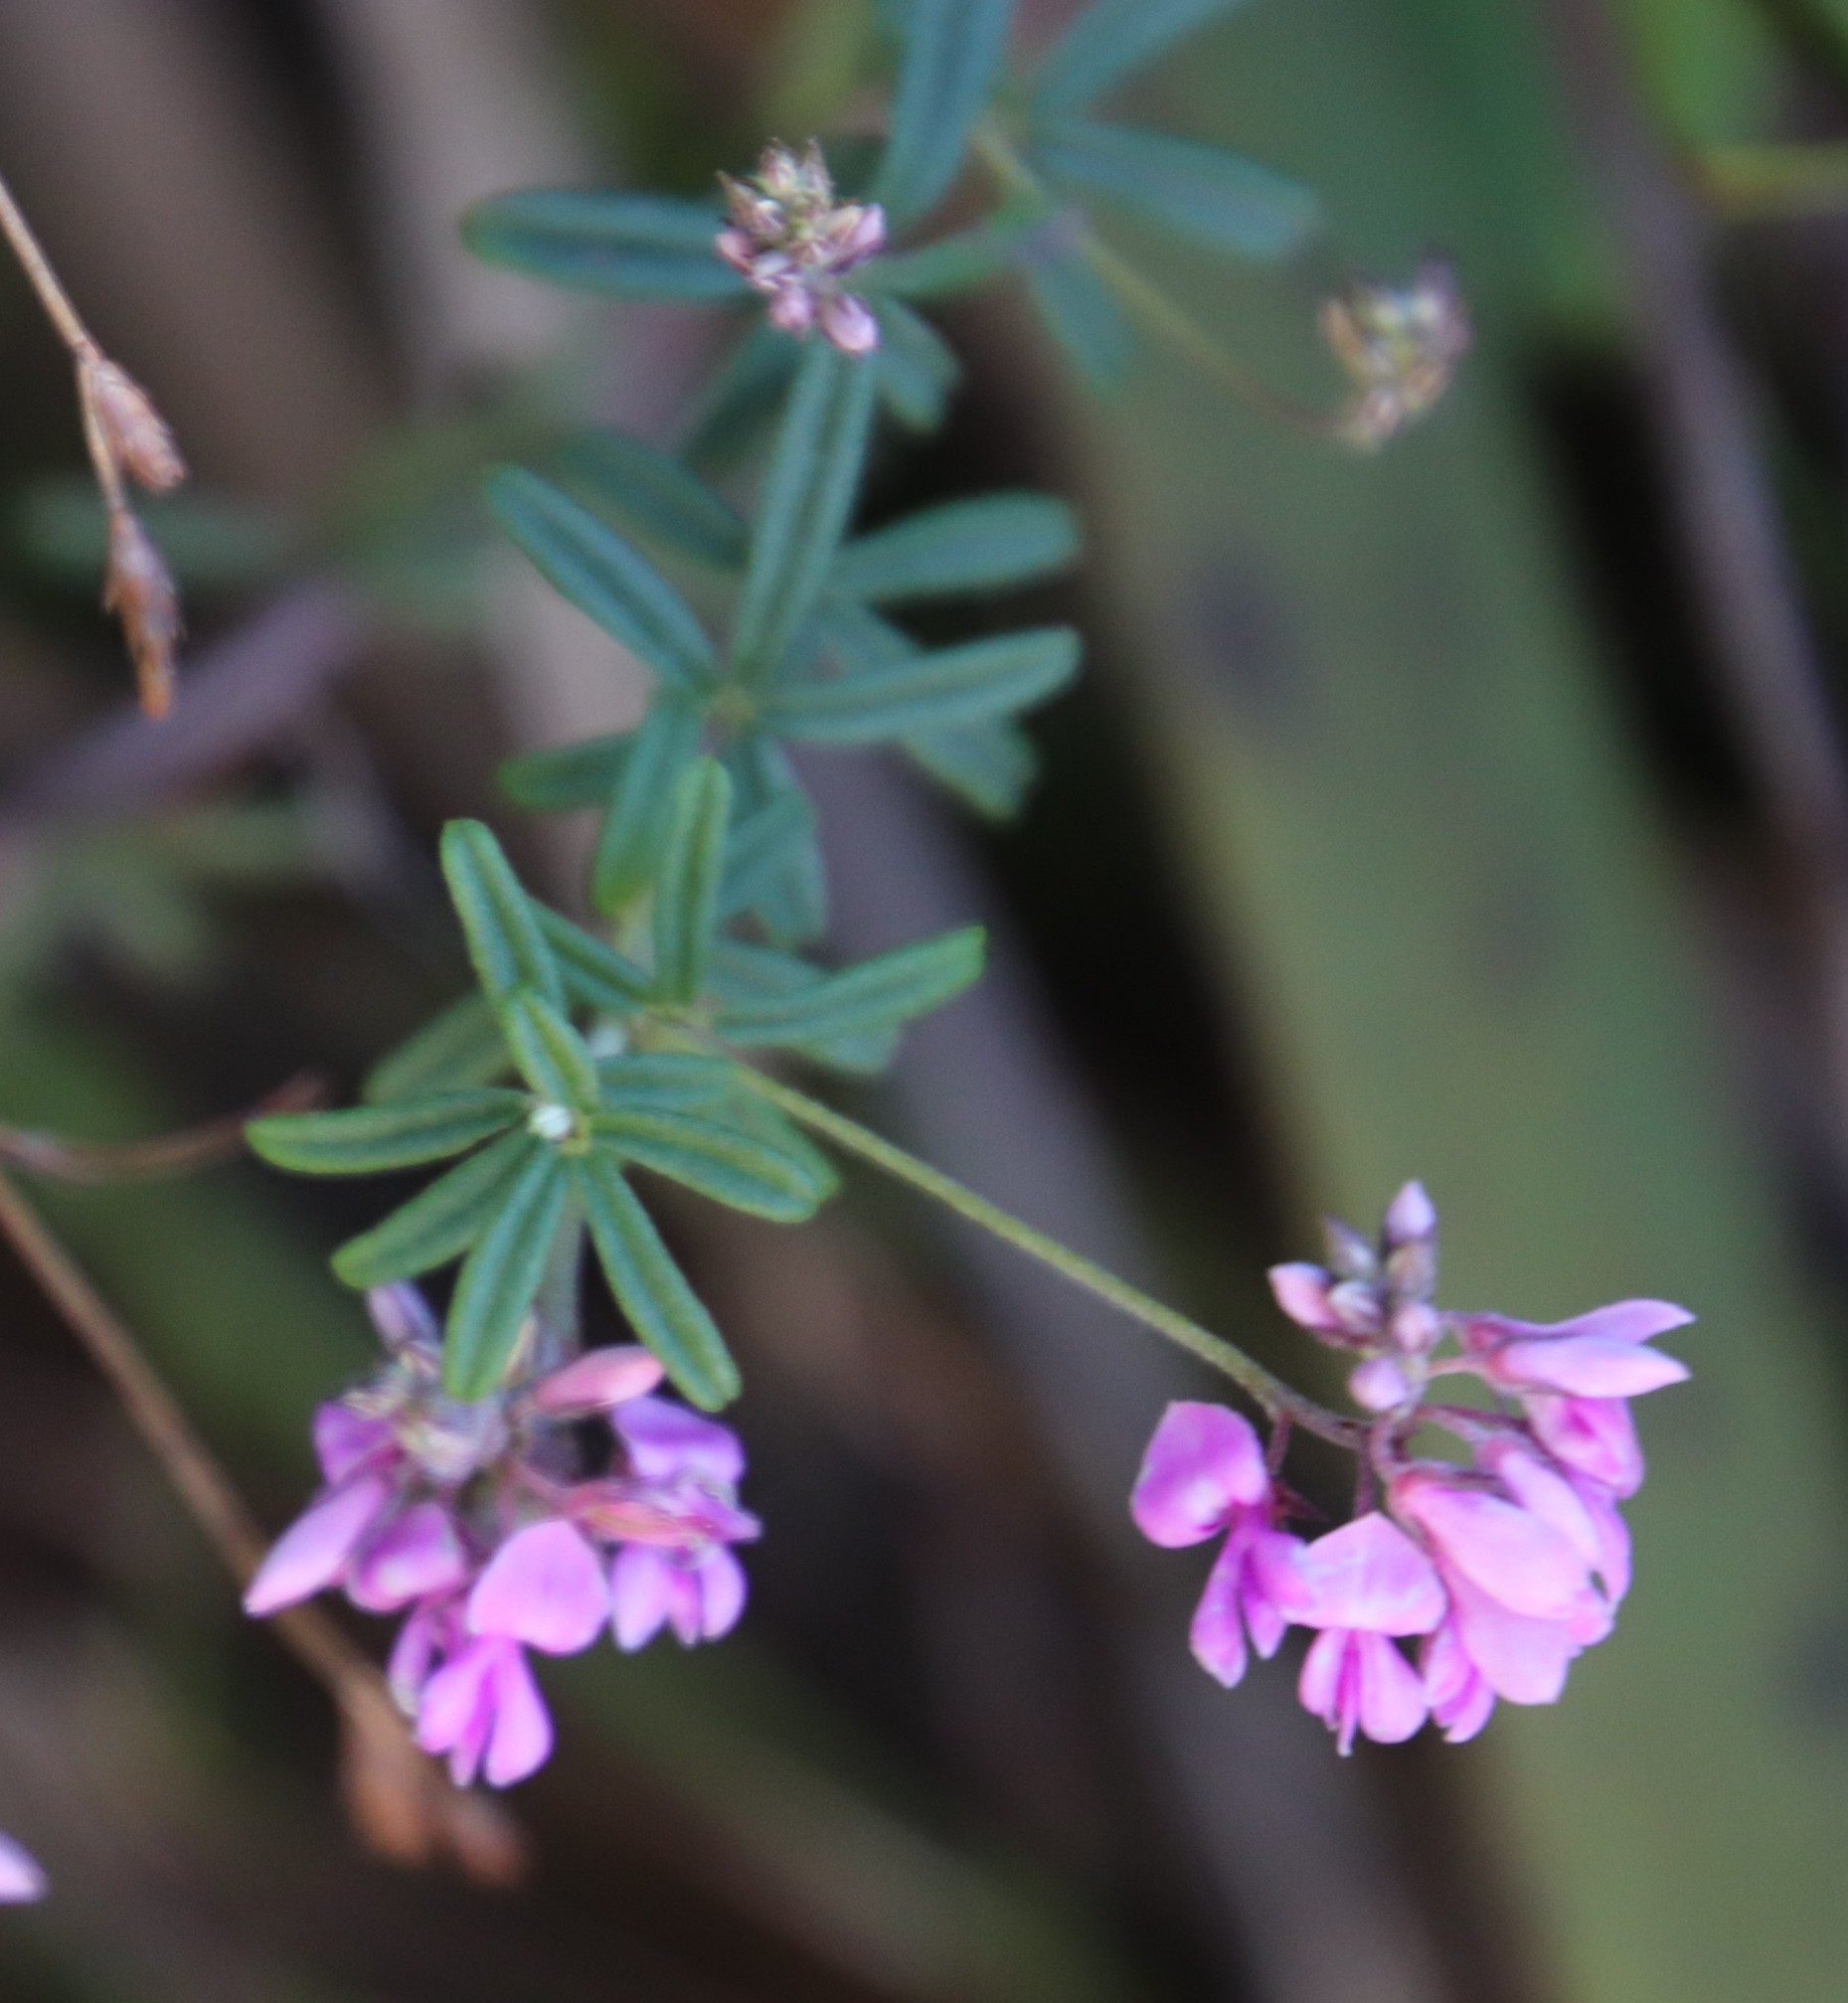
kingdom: Plantae
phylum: Tracheophyta
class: Magnoliopsida
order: Fabales
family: Fabaceae
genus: Indigofera
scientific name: Indigofera filiformis
